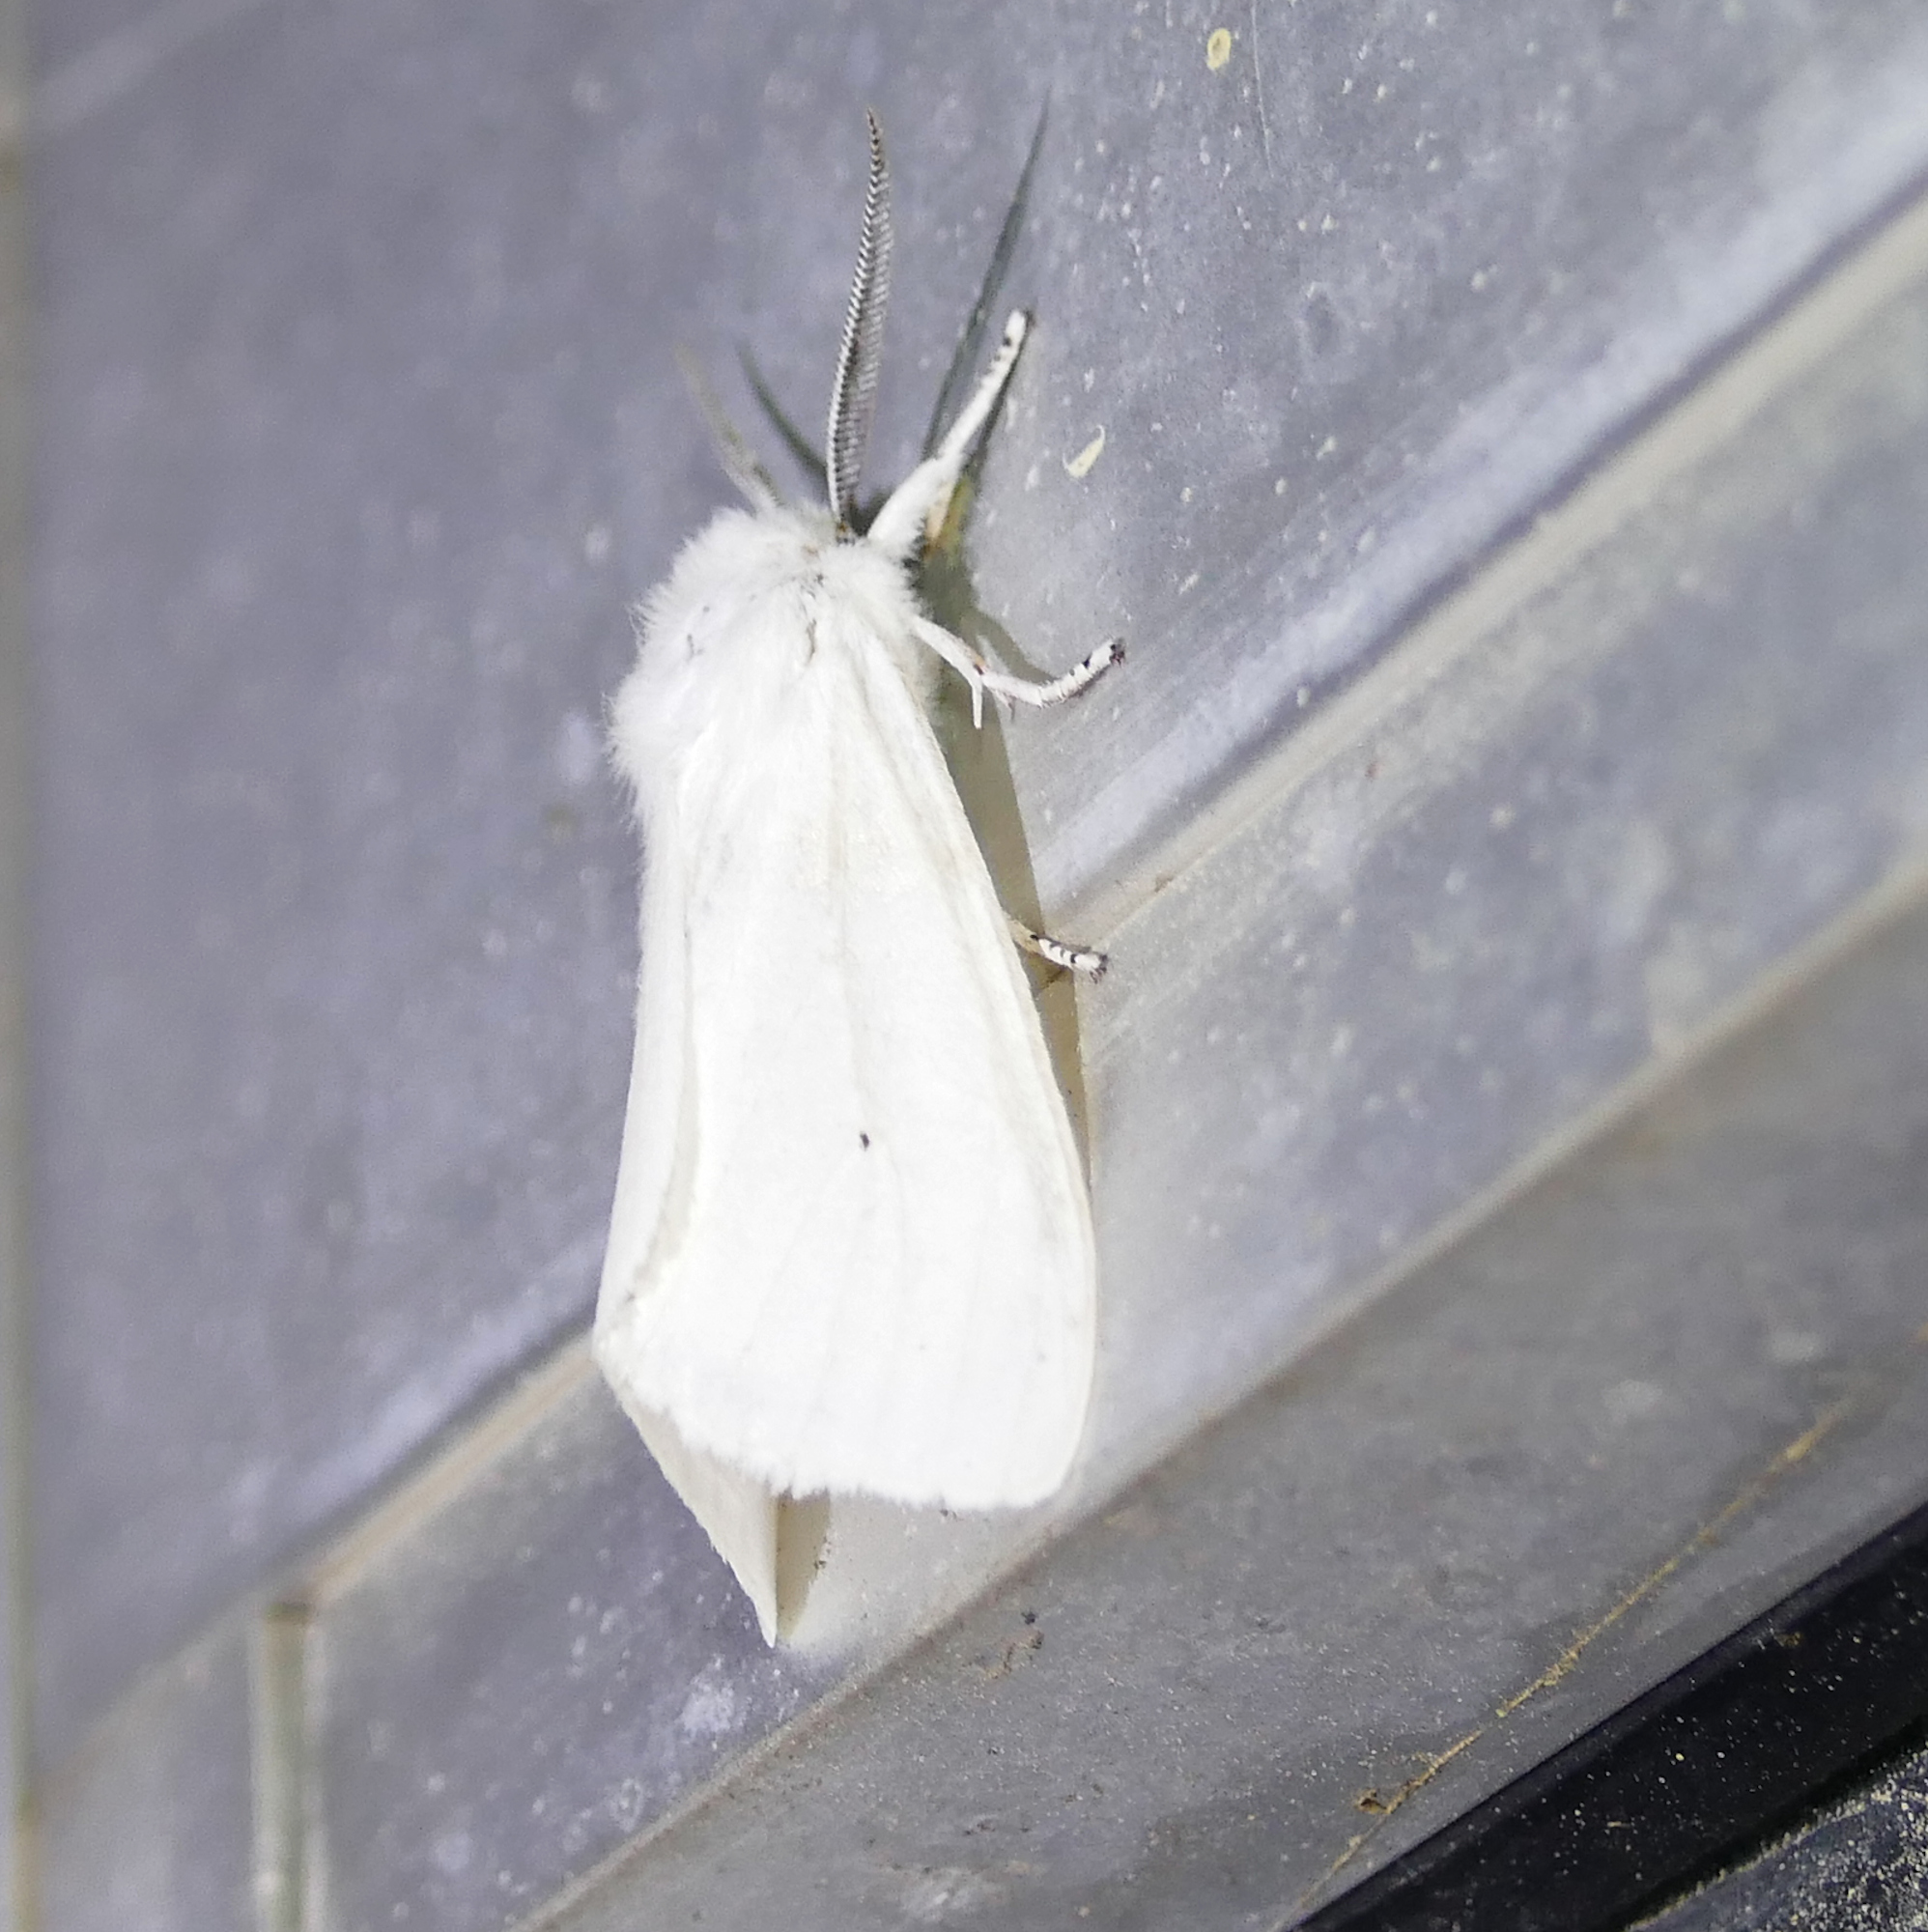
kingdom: Animalia
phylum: Arthropoda
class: Insecta
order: Lepidoptera
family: Erebidae
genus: Spilosoma
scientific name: Spilosoma virginica
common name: Virginia tiger moth
